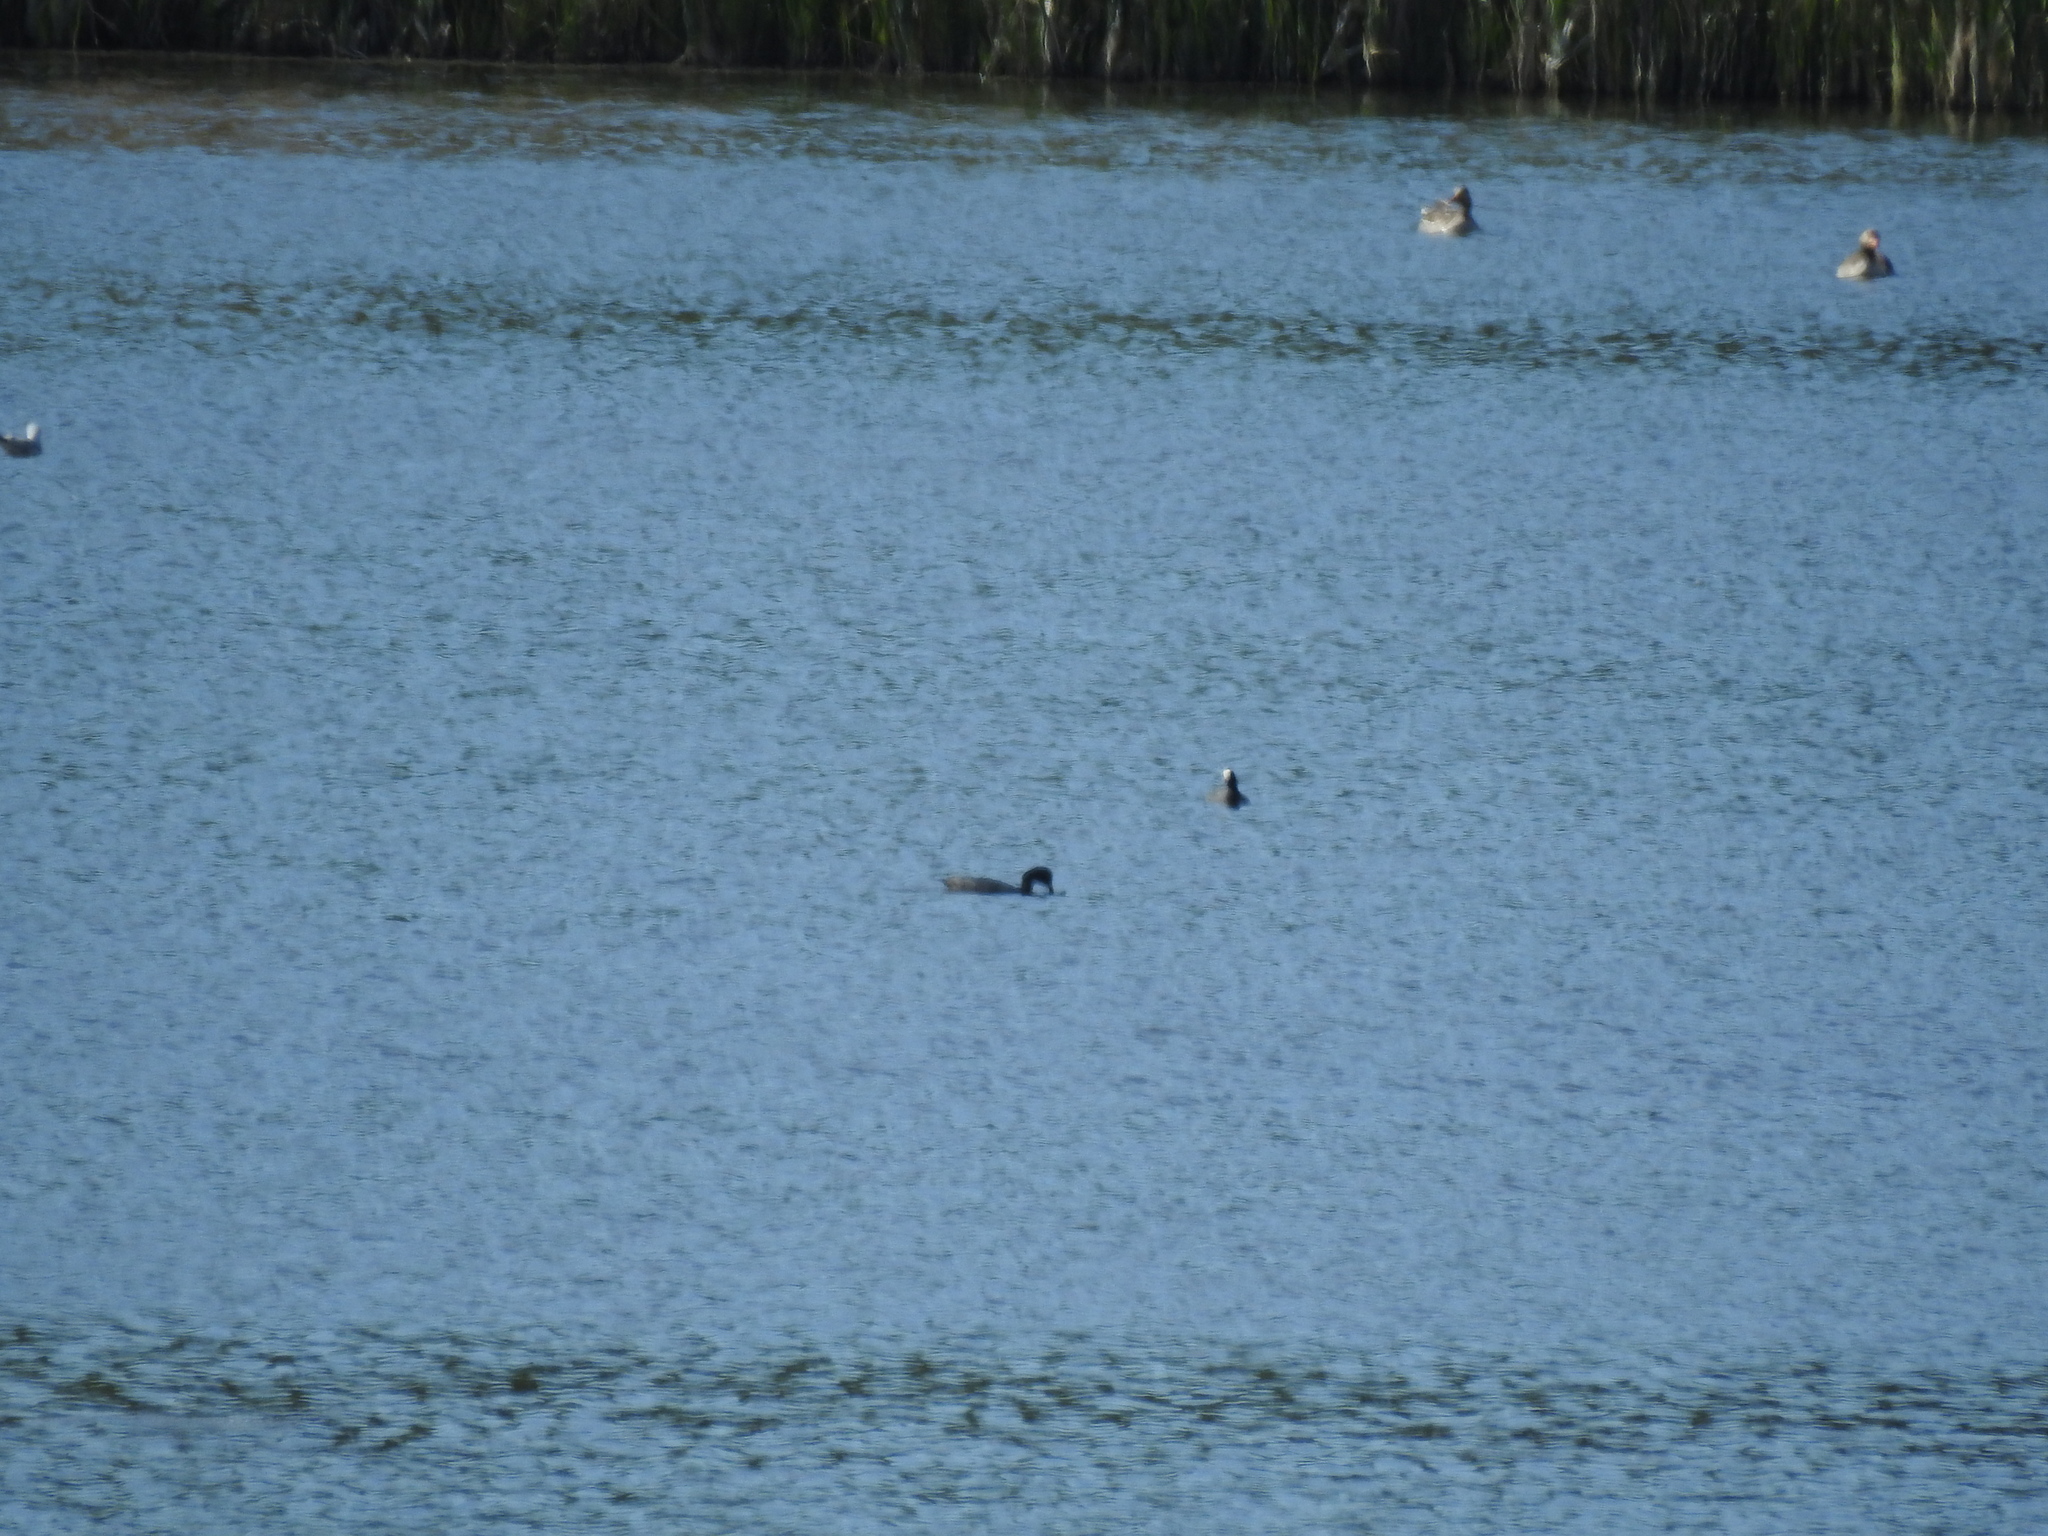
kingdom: Animalia
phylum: Chordata
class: Aves
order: Gruiformes
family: Rallidae
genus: Fulica
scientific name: Fulica atra
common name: Eurasian coot
